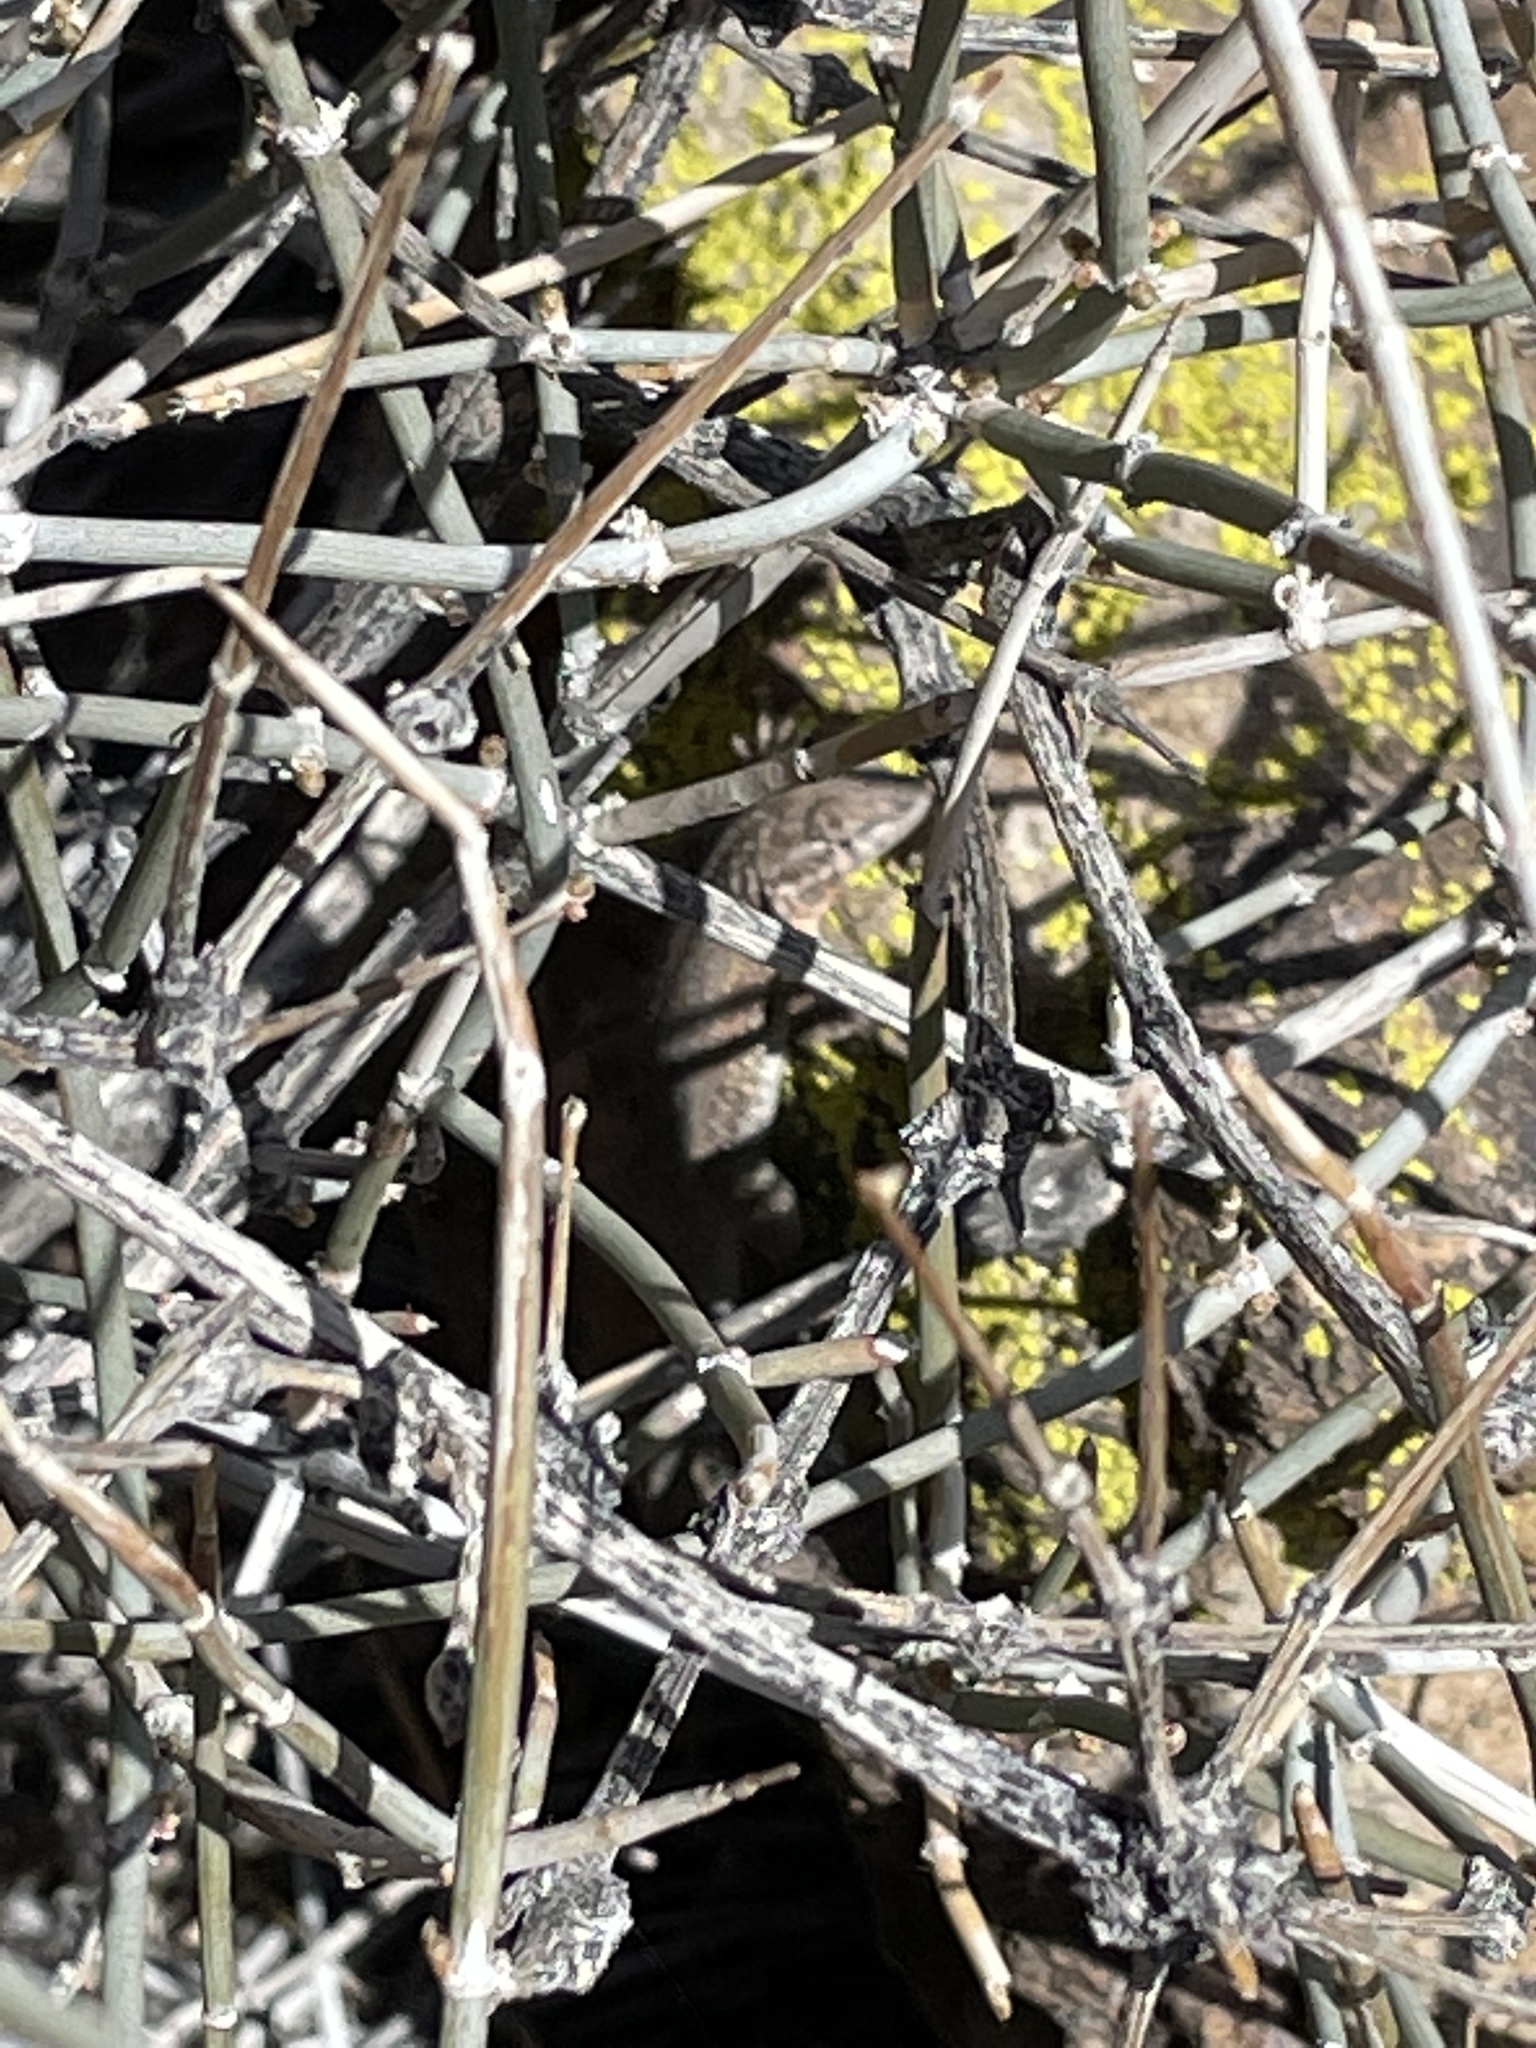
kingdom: Animalia
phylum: Chordata
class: Squamata
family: Phrynosomatidae
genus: Uta
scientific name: Uta stansburiana
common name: Side-blotched lizard
